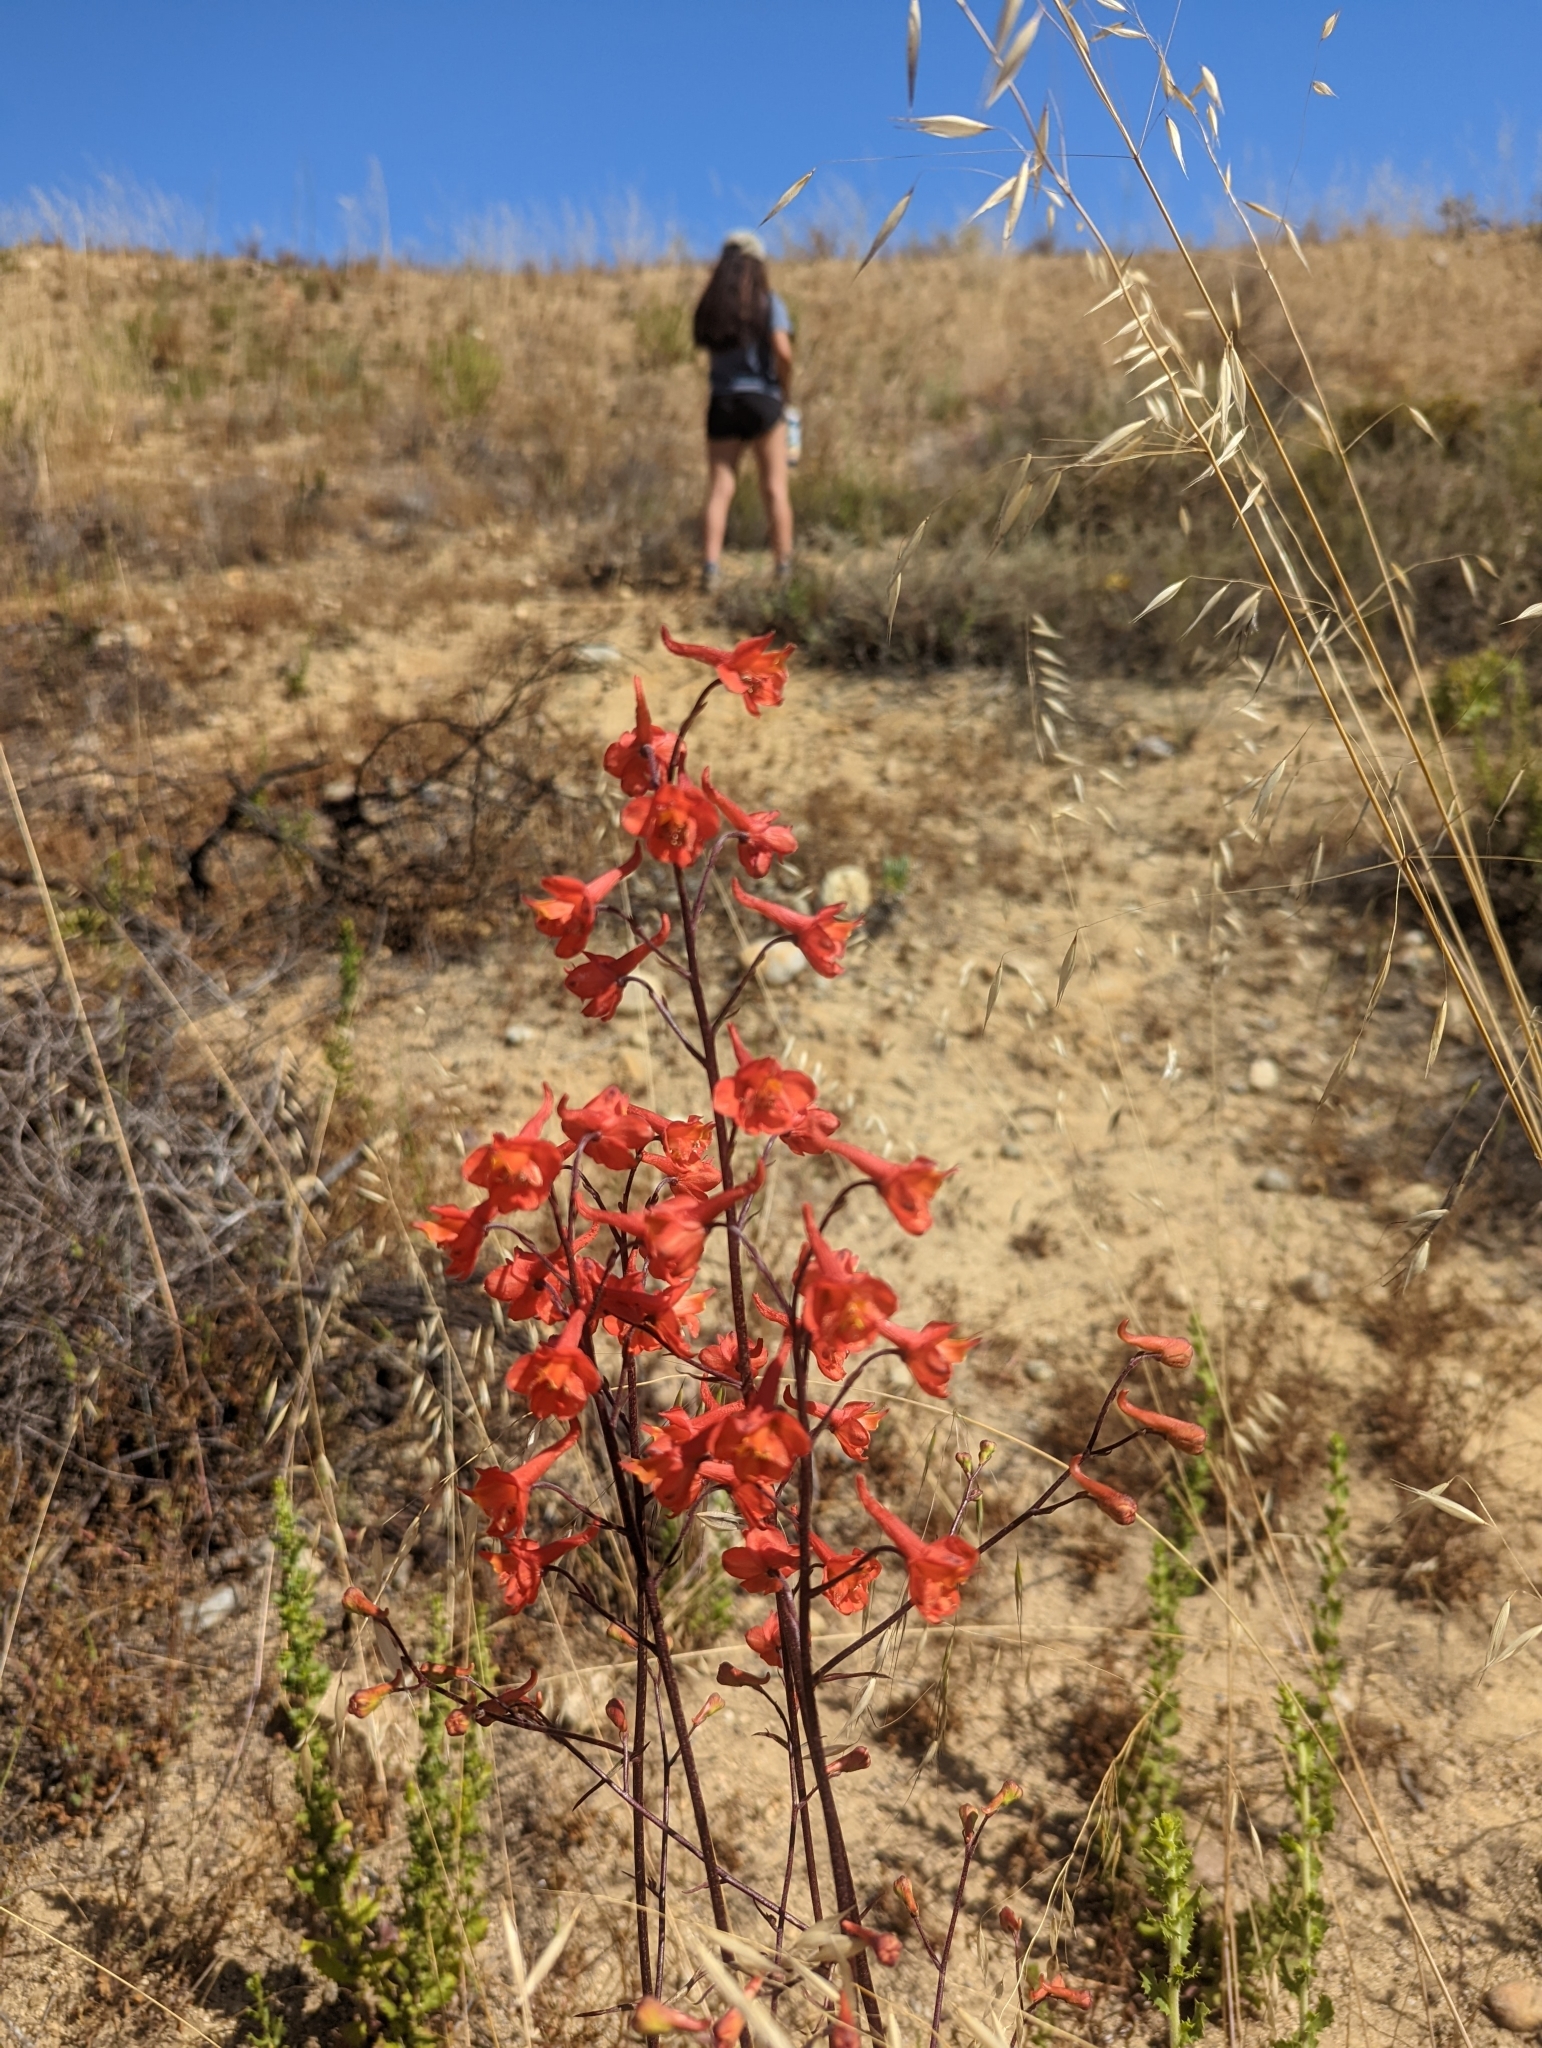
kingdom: Plantae
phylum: Tracheophyta
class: Magnoliopsida
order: Ranunculales
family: Ranunculaceae
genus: Delphinium
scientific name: Delphinium cardinale
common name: Scarlet larkspur
